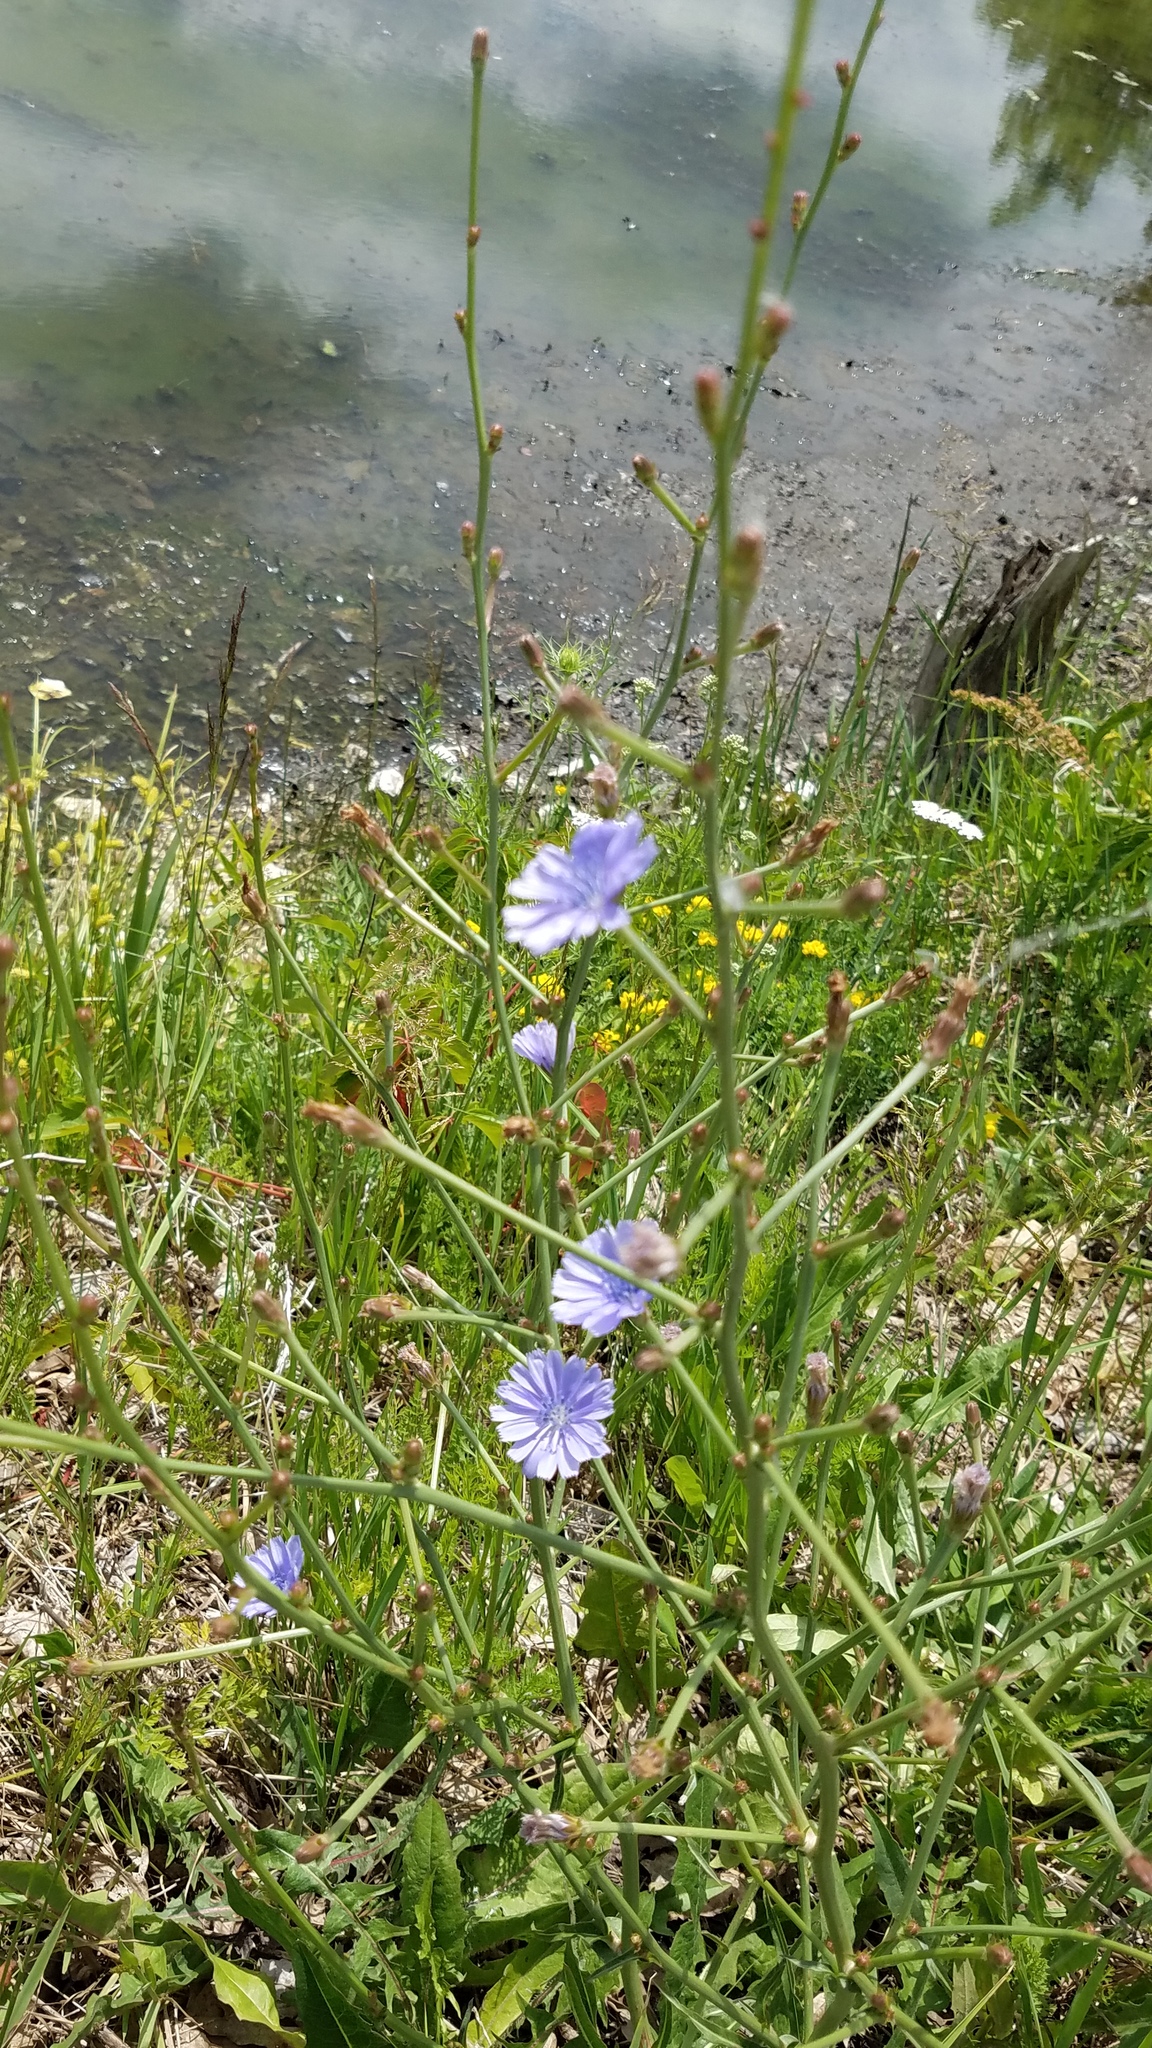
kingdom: Plantae
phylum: Tracheophyta
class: Magnoliopsida
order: Asterales
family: Asteraceae
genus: Cichorium
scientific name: Cichorium intybus
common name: Chicory
